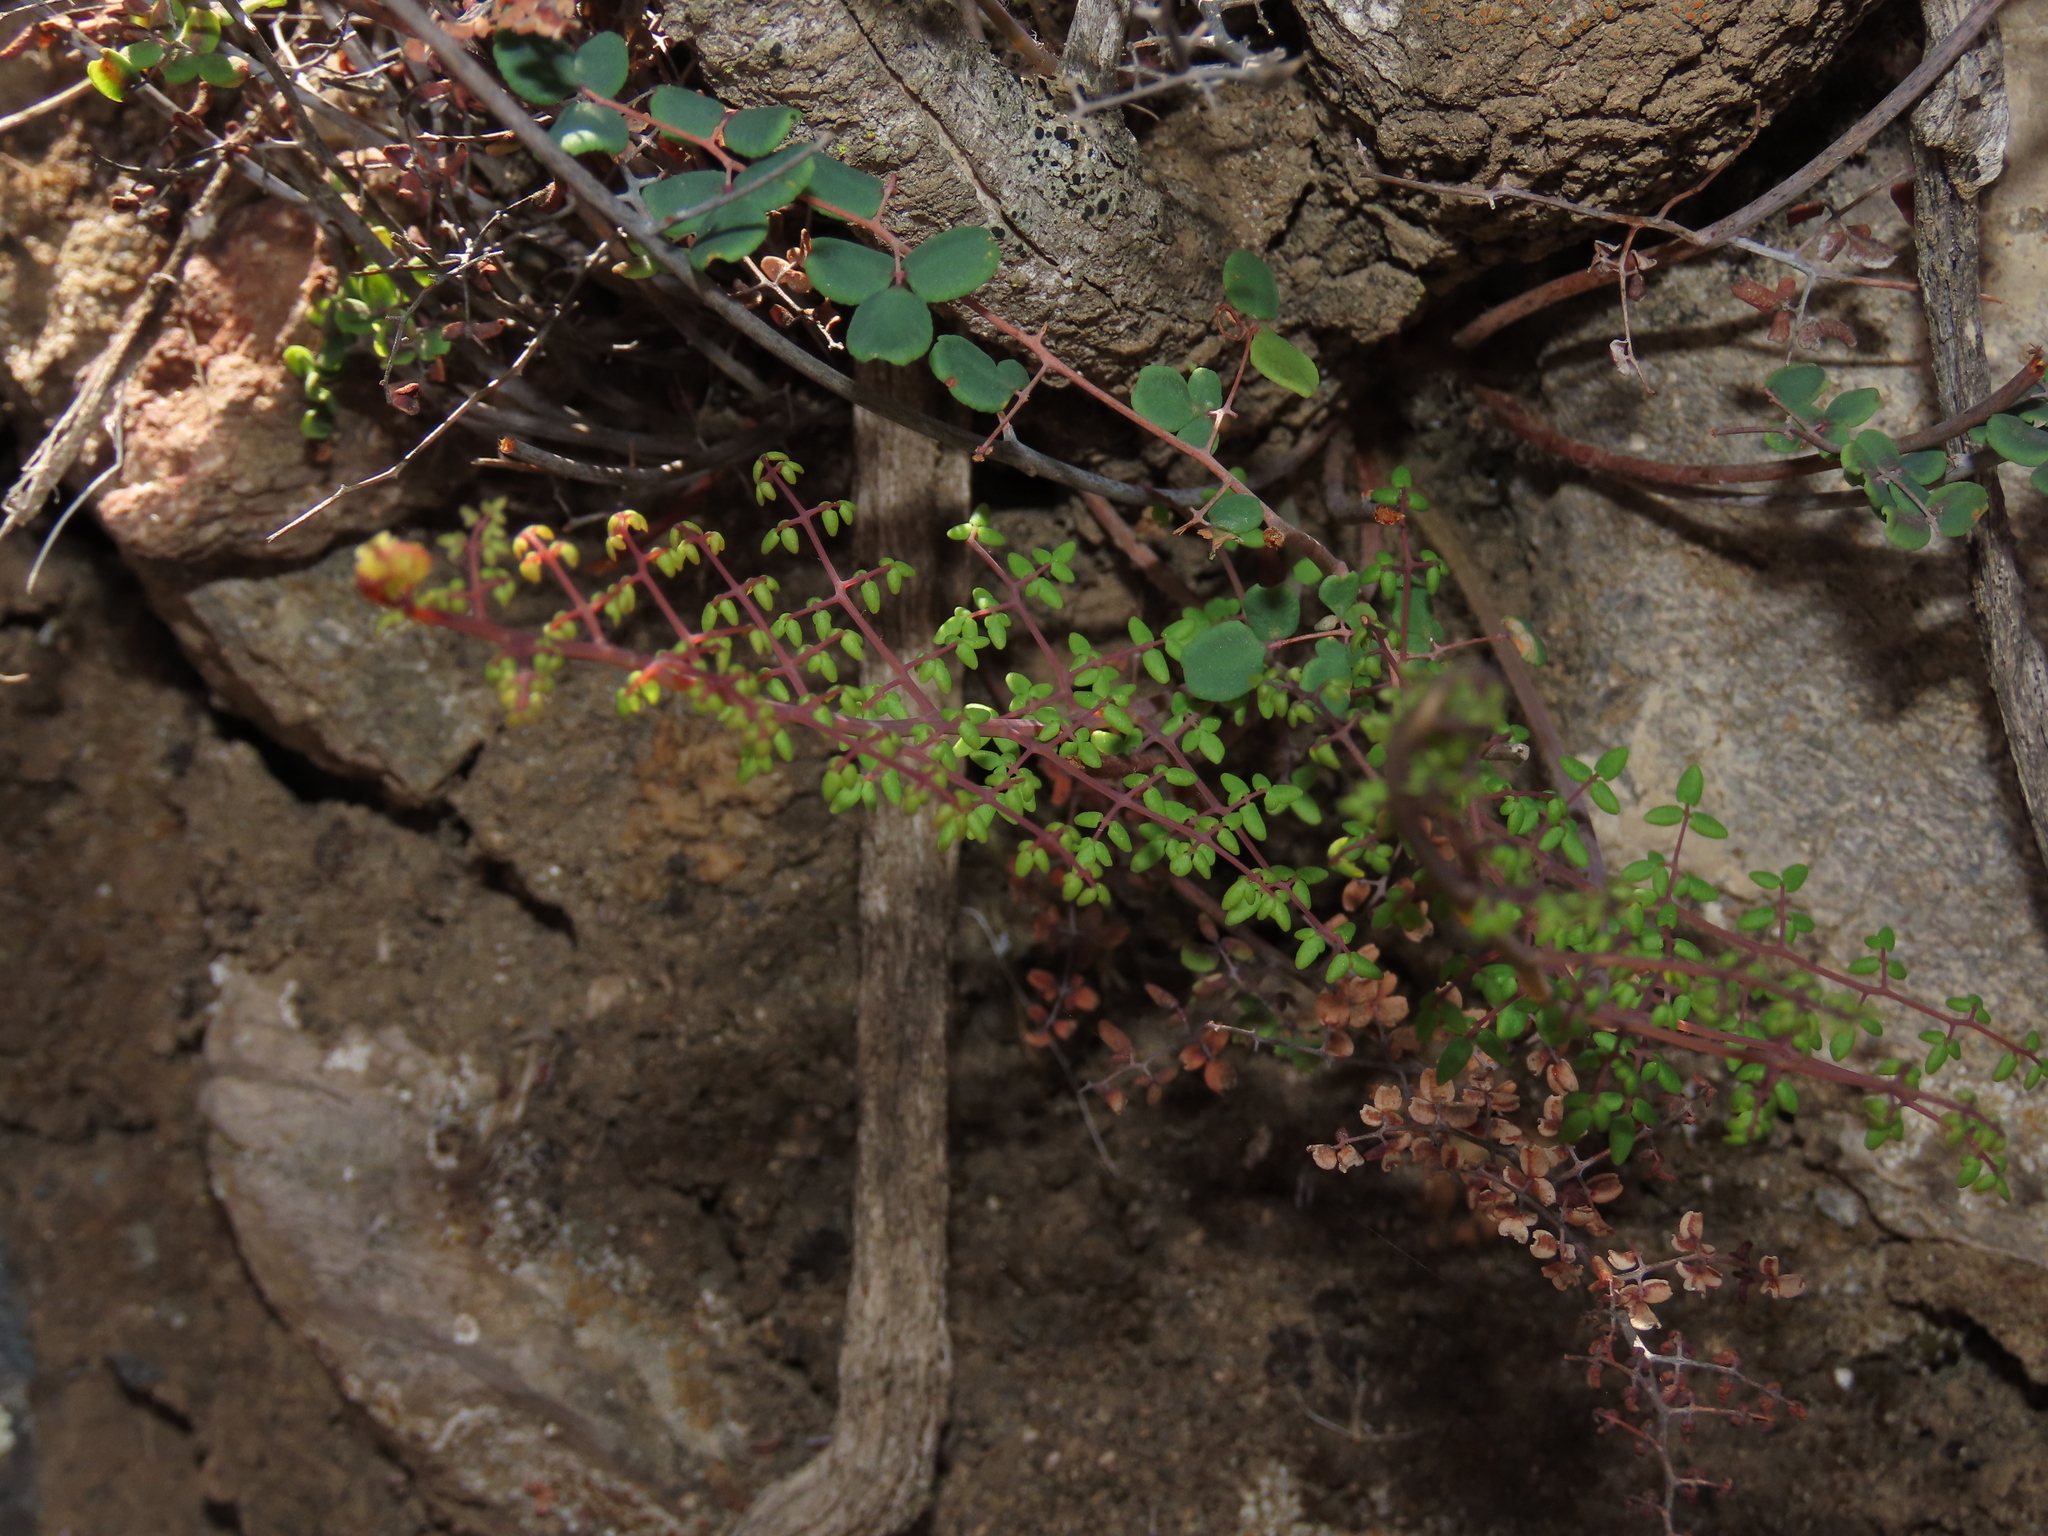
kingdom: Plantae
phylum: Tracheophyta
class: Polypodiopsida
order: Polypodiales
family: Pteridaceae
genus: Pellaea
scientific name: Pellaea myrtillifolia
